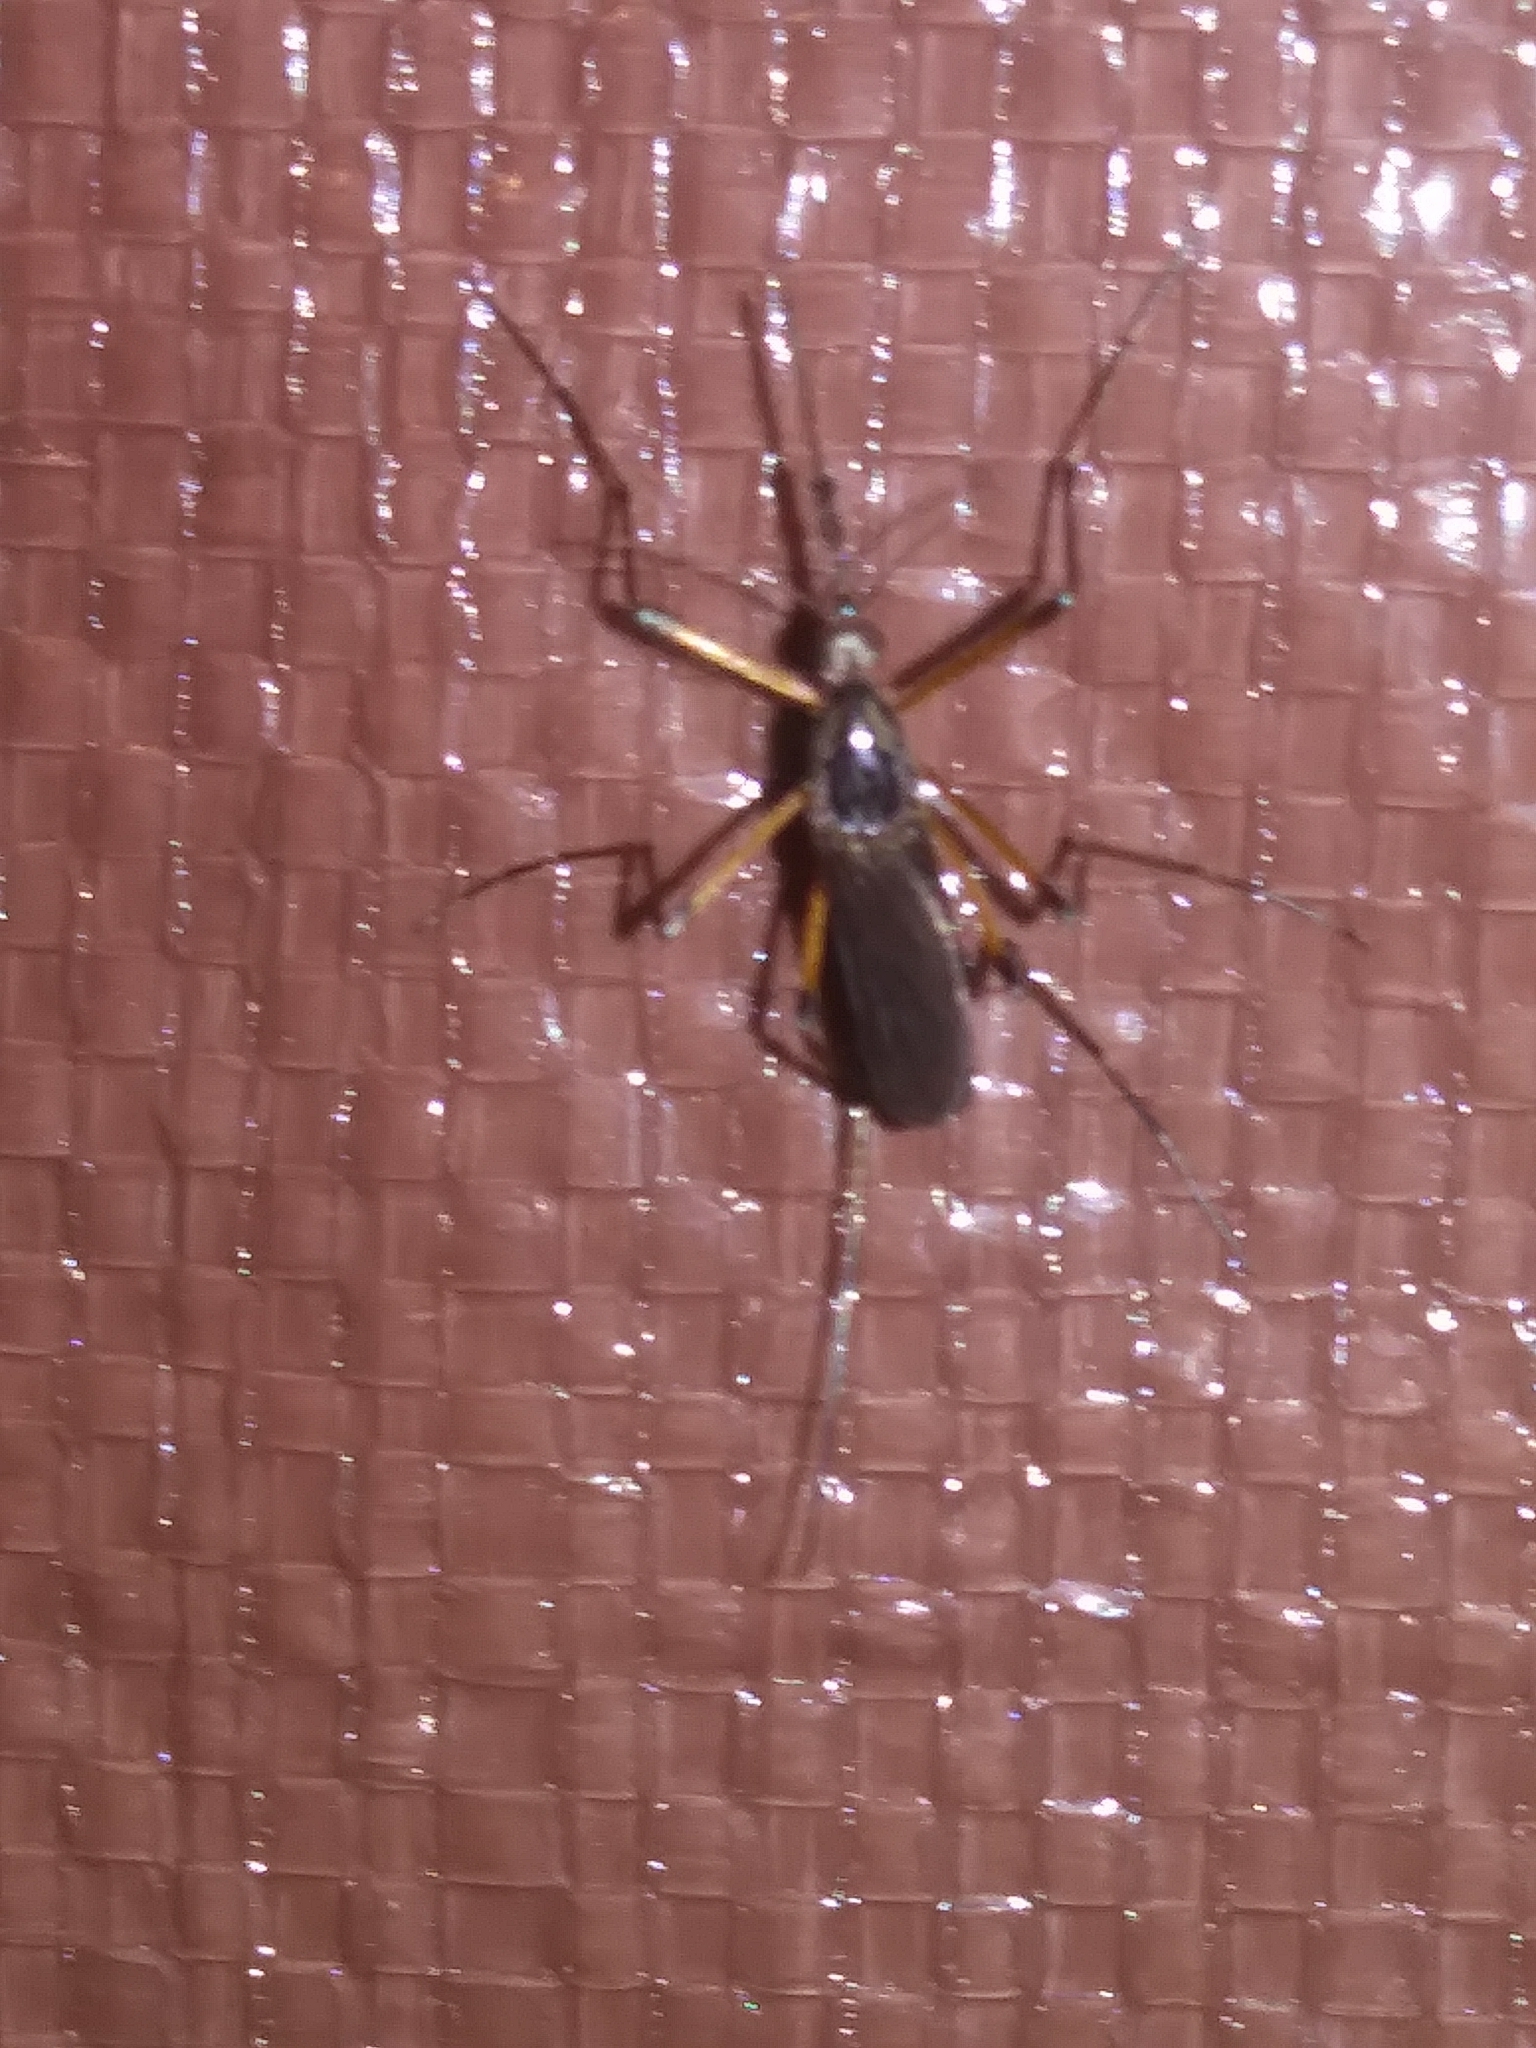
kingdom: Animalia
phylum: Arthropoda
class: Insecta
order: Diptera
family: Culicidae
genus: Psorophora
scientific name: Psorophora howardii
